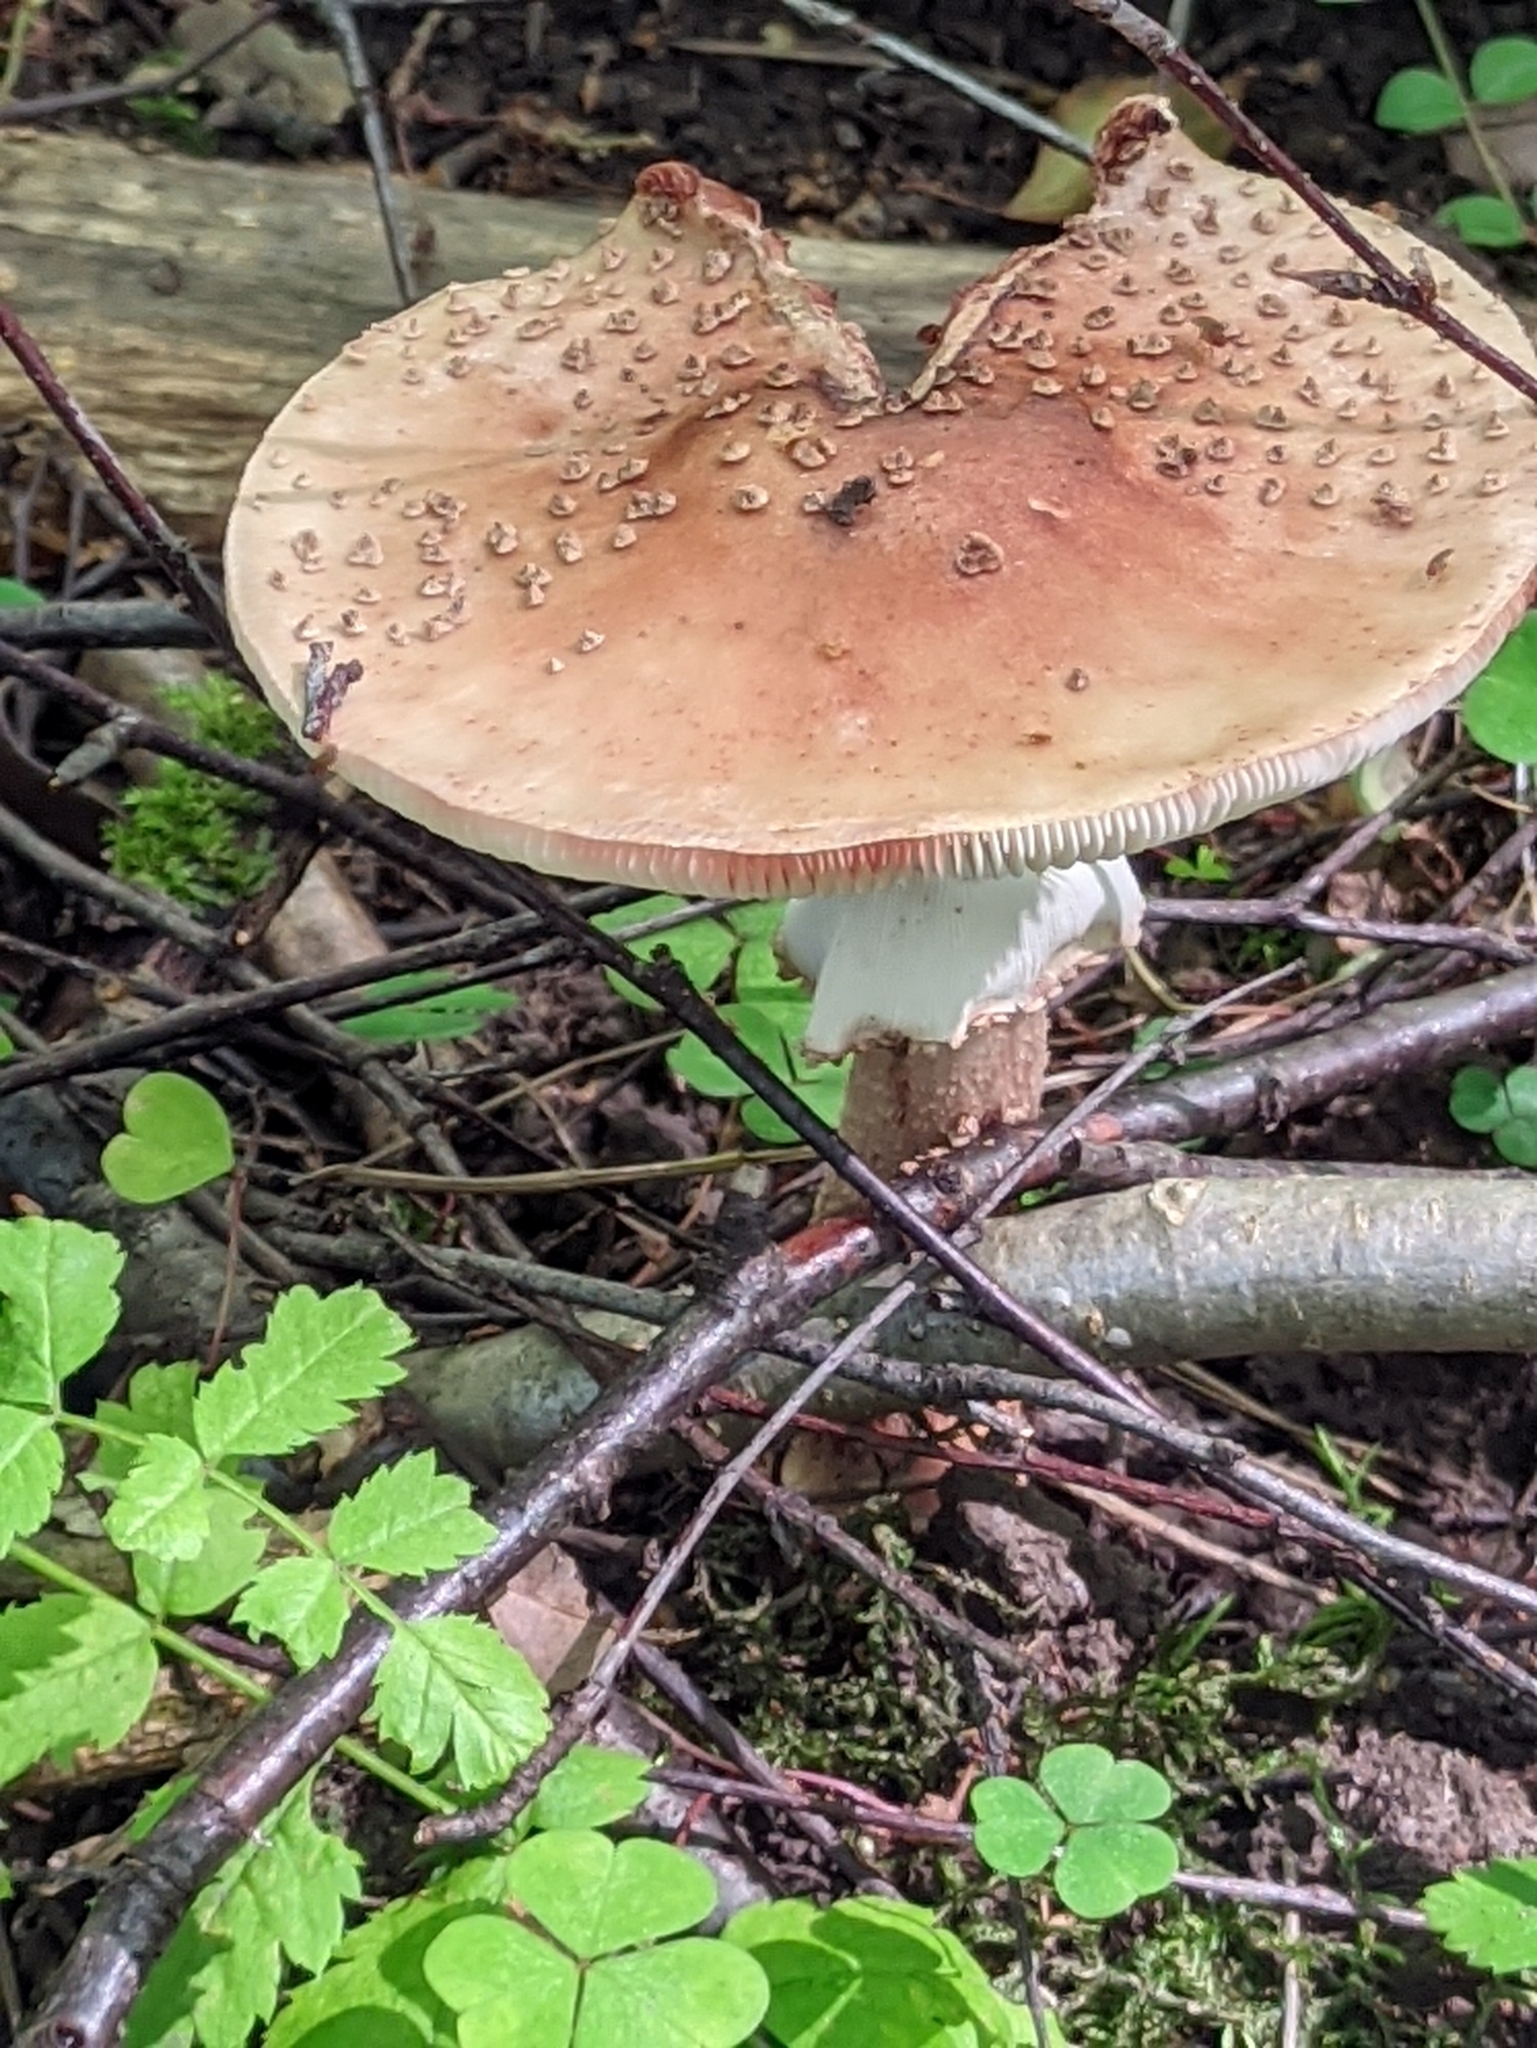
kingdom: Fungi
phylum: Basidiomycota
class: Agaricomycetes
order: Agaricales
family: Amanitaceae
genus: Amanita
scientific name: Amanita rubescens
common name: Blusher
